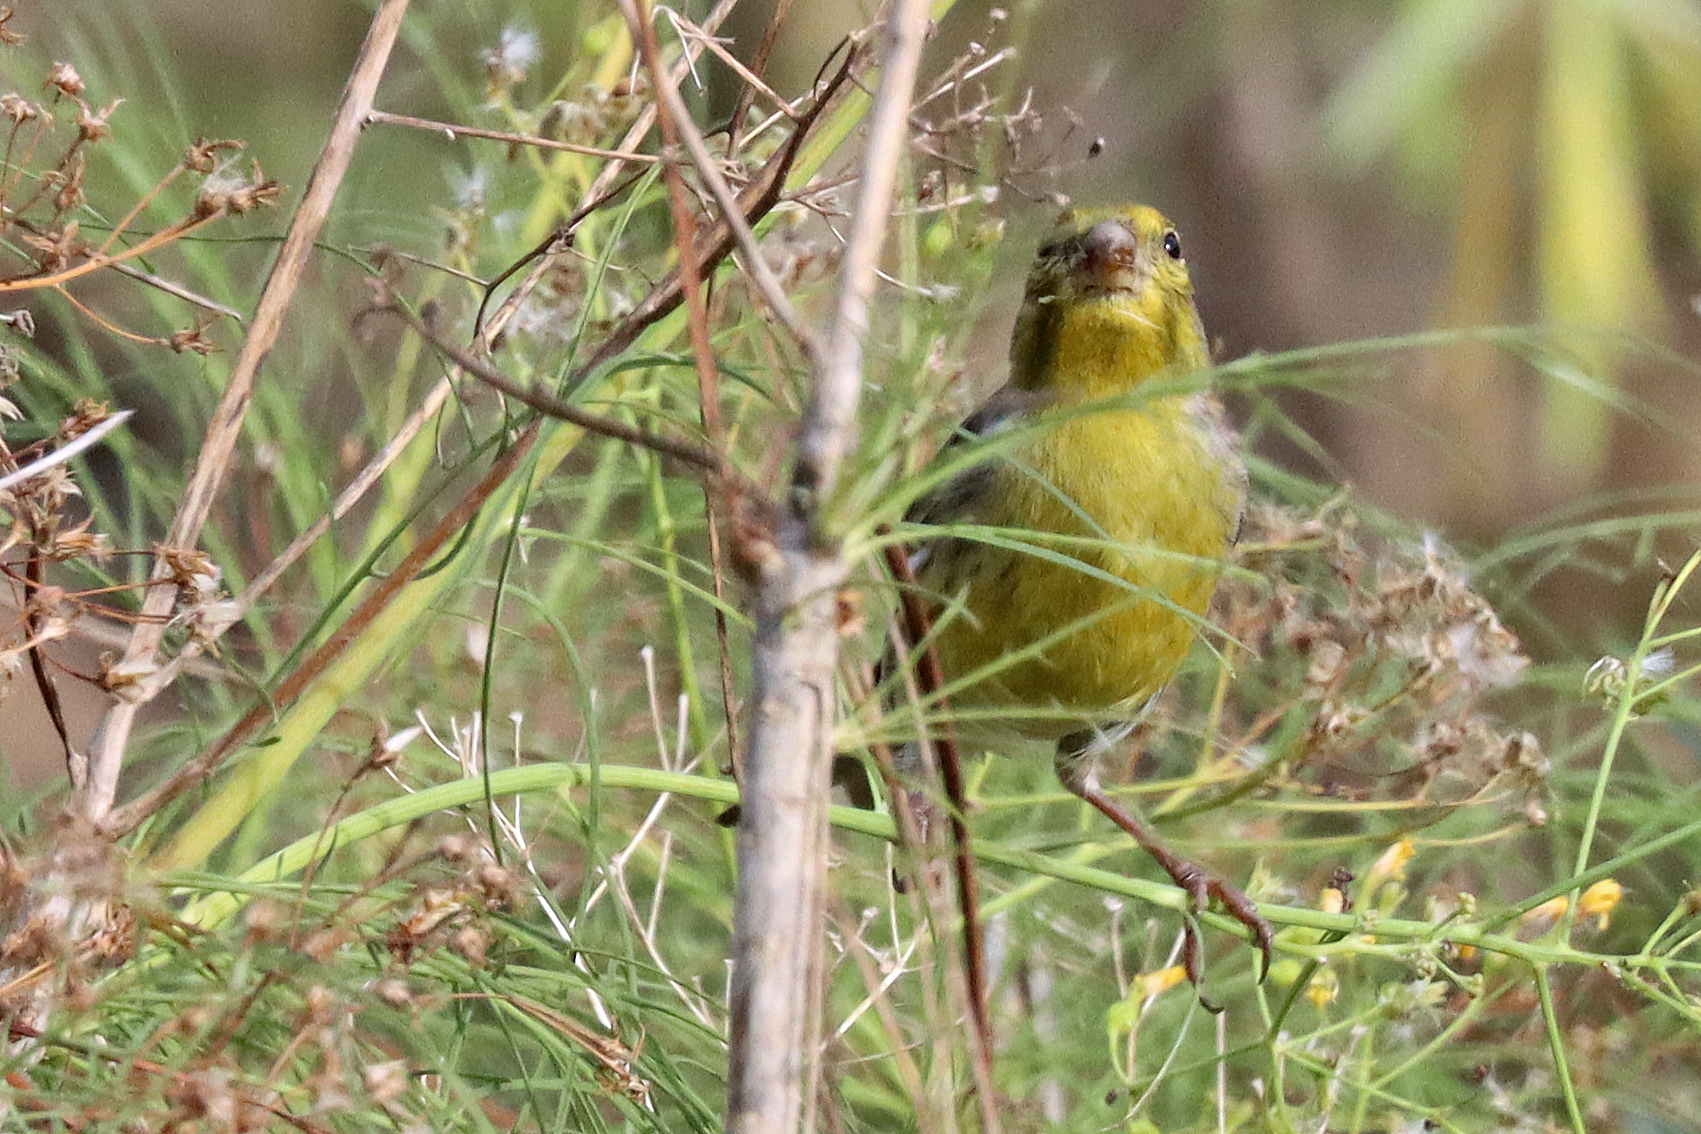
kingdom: Animalia
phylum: Chordata
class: Aves
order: Passeriformes
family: Fringillidae
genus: Serinus
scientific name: Serinus canaria
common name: Atlantic canary
